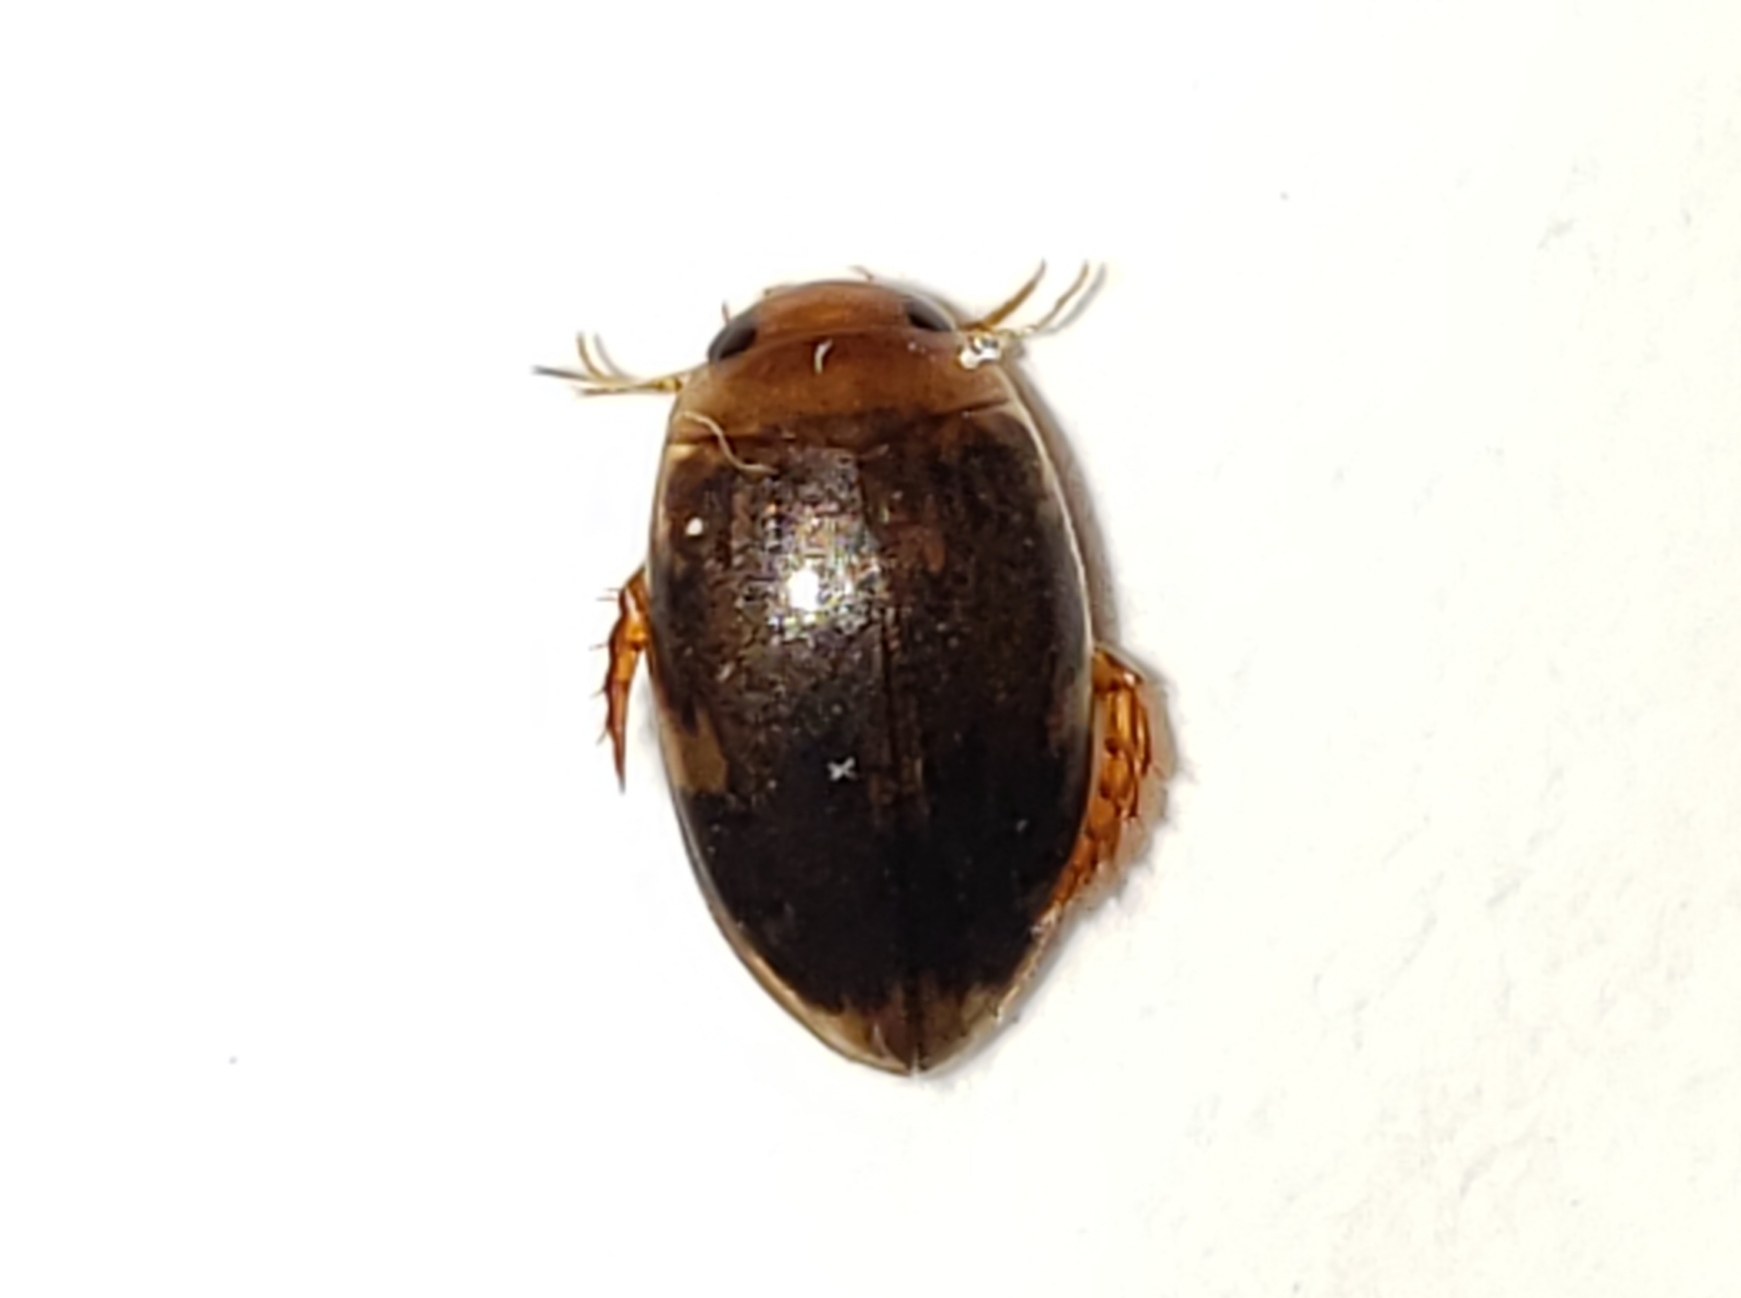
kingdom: Animalia
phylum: Arthropoda
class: Insecta
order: Coleoptera
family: Dytiscidae
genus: Laccophilus
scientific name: Laccophilus proximus
